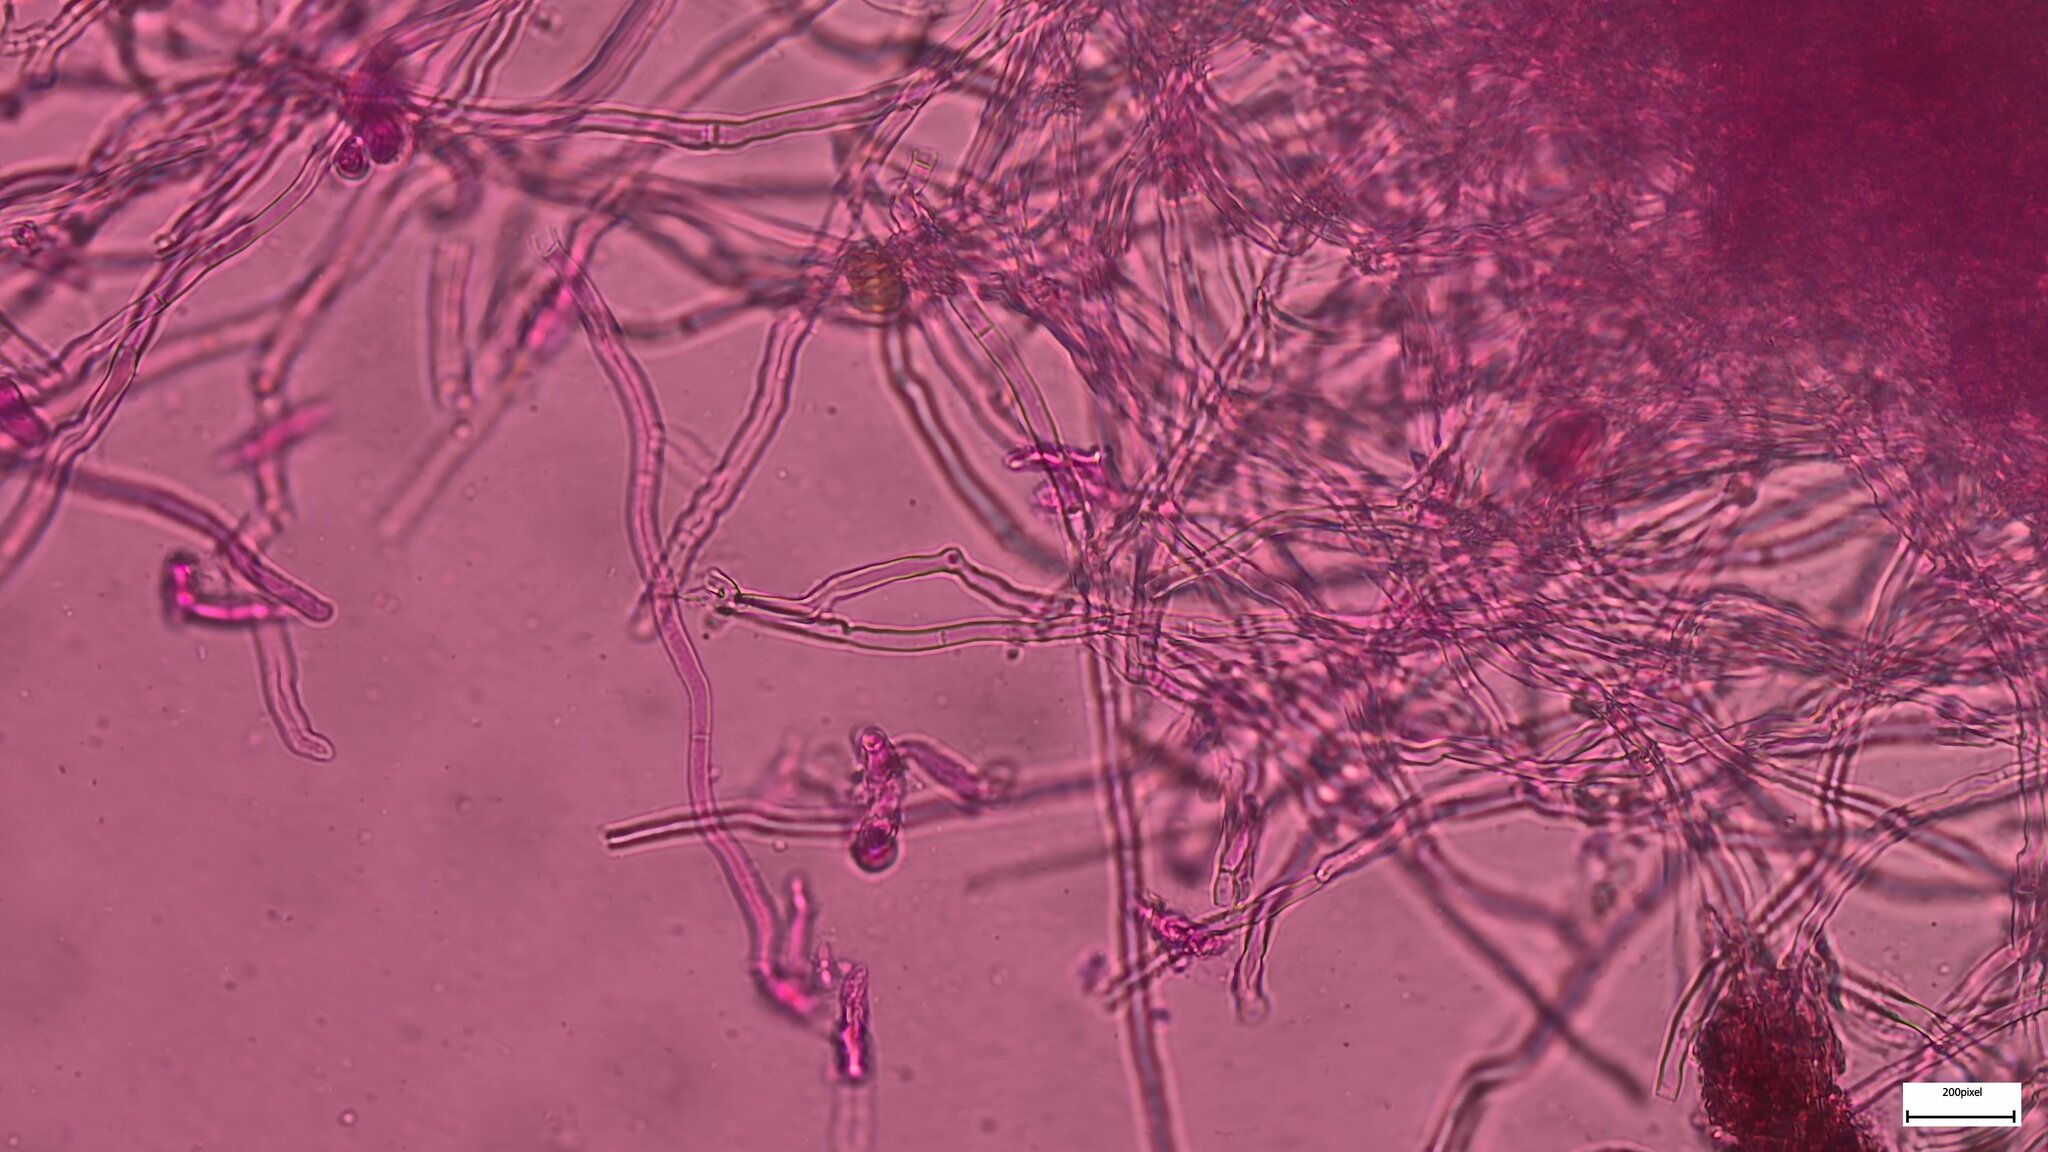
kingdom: Fungi
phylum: Basidiomycota
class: Pucciniomycetes
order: Platygloeales
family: Eocronartiaceae
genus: Eocronartium
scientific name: Eocronartium muscicola
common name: Moss rust
